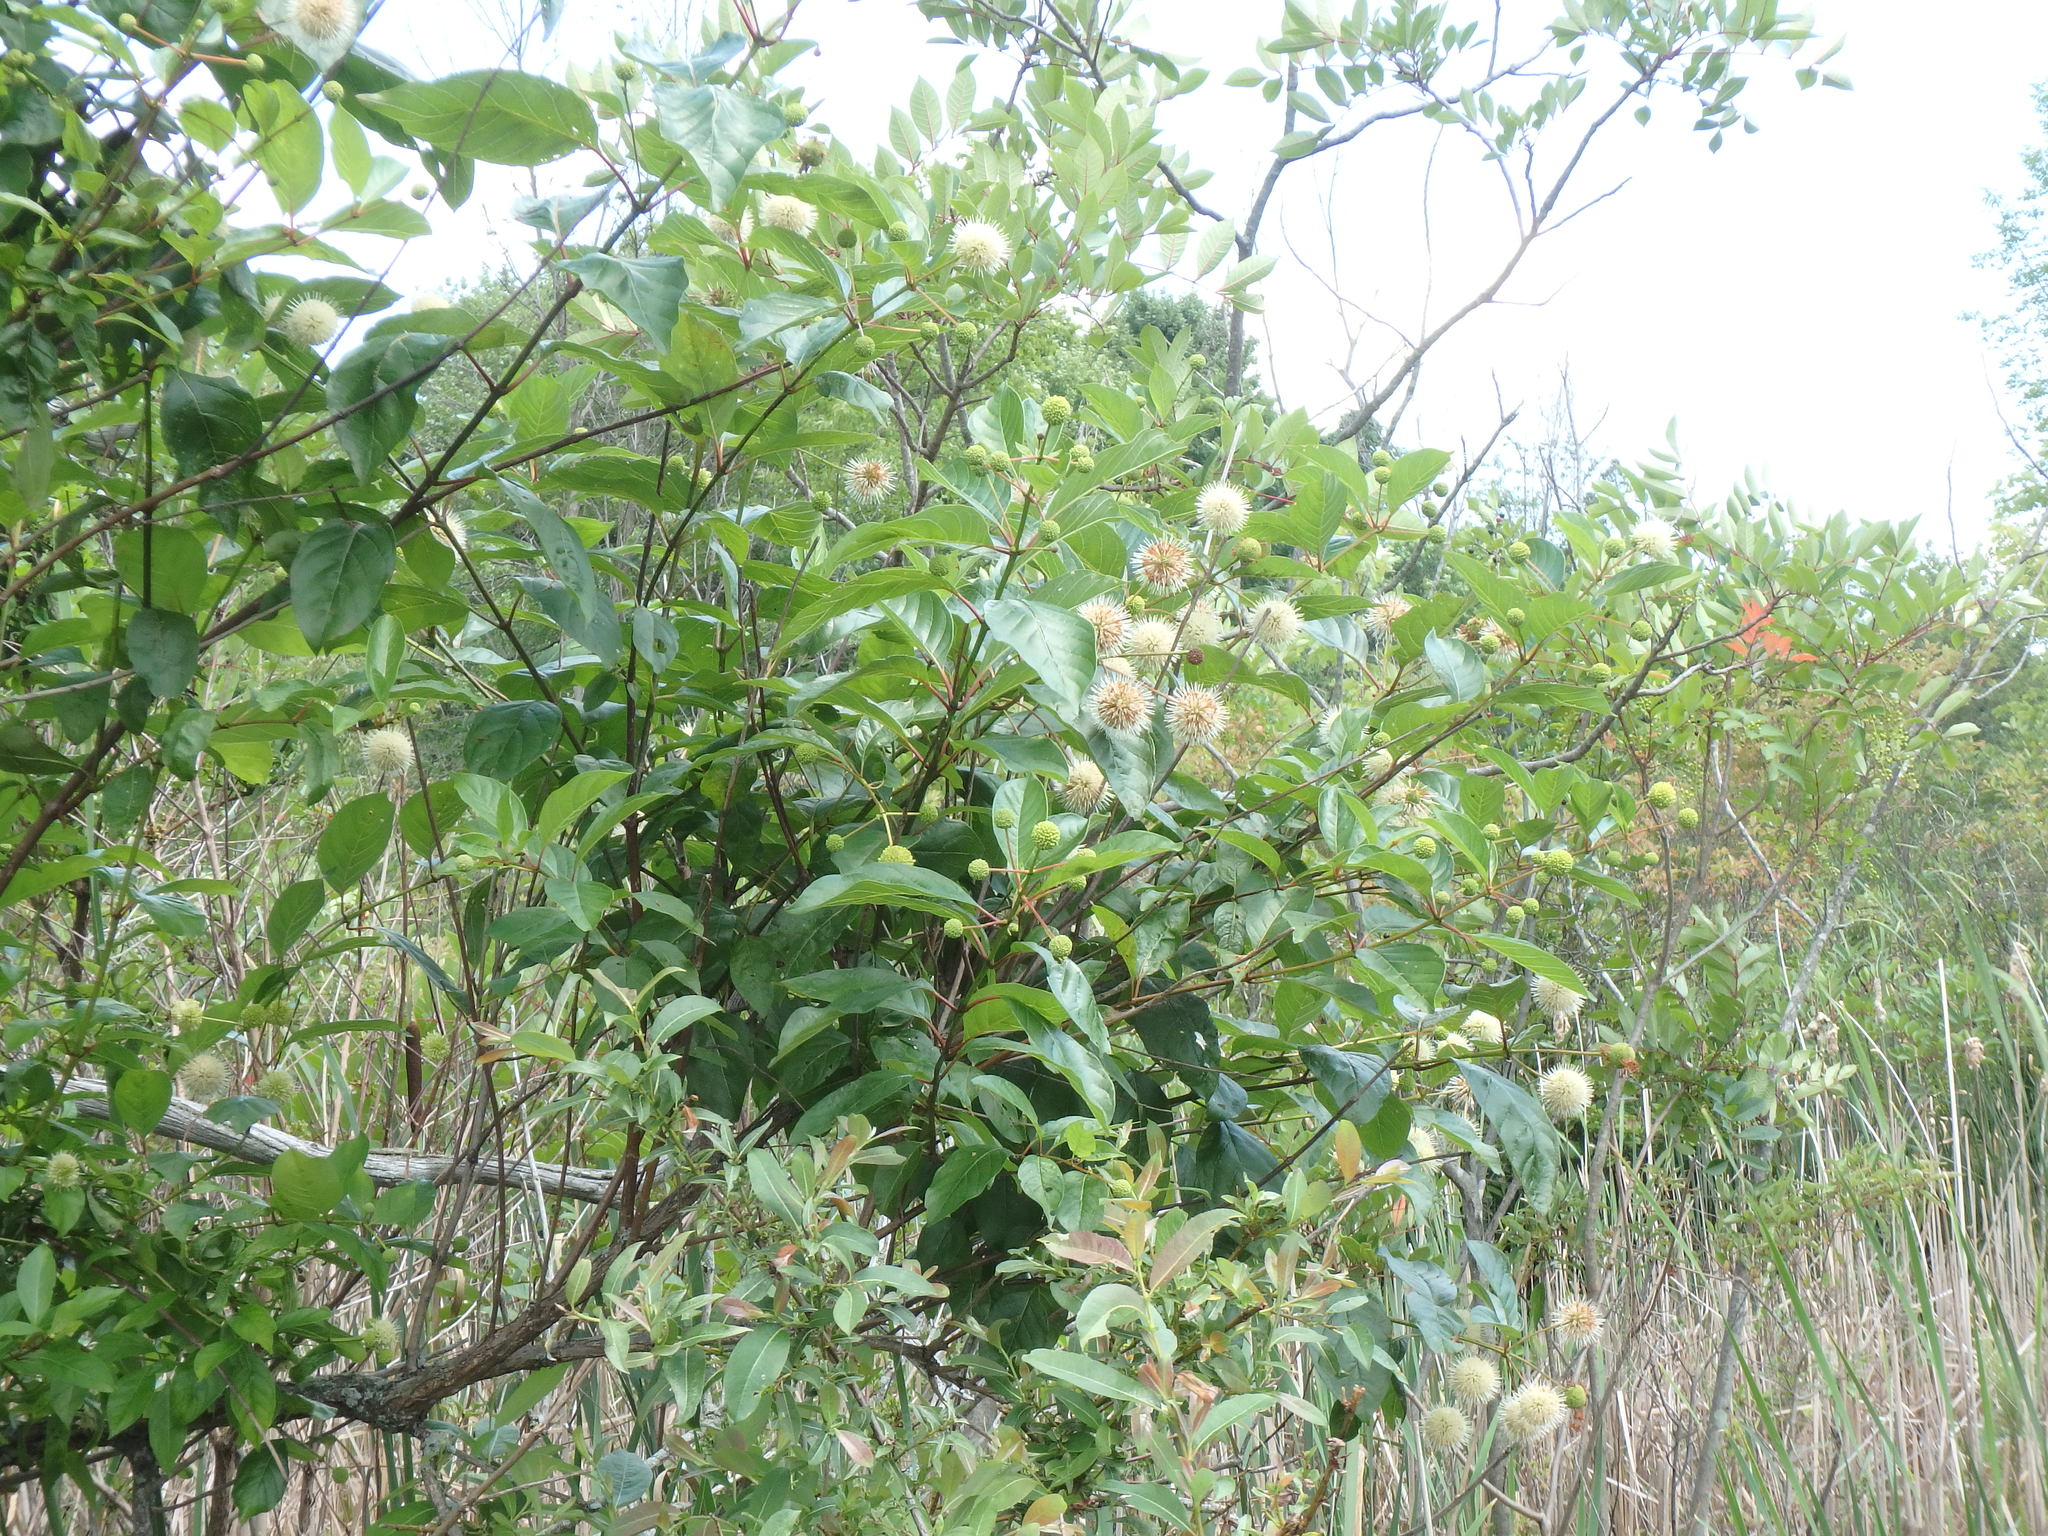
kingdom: Plantae
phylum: Tracheophyta
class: Magnoliopsida
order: Gentianales
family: Rubiaceae
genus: Cephalanthus
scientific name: Cephalanthus occidentalis
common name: Button-willow
